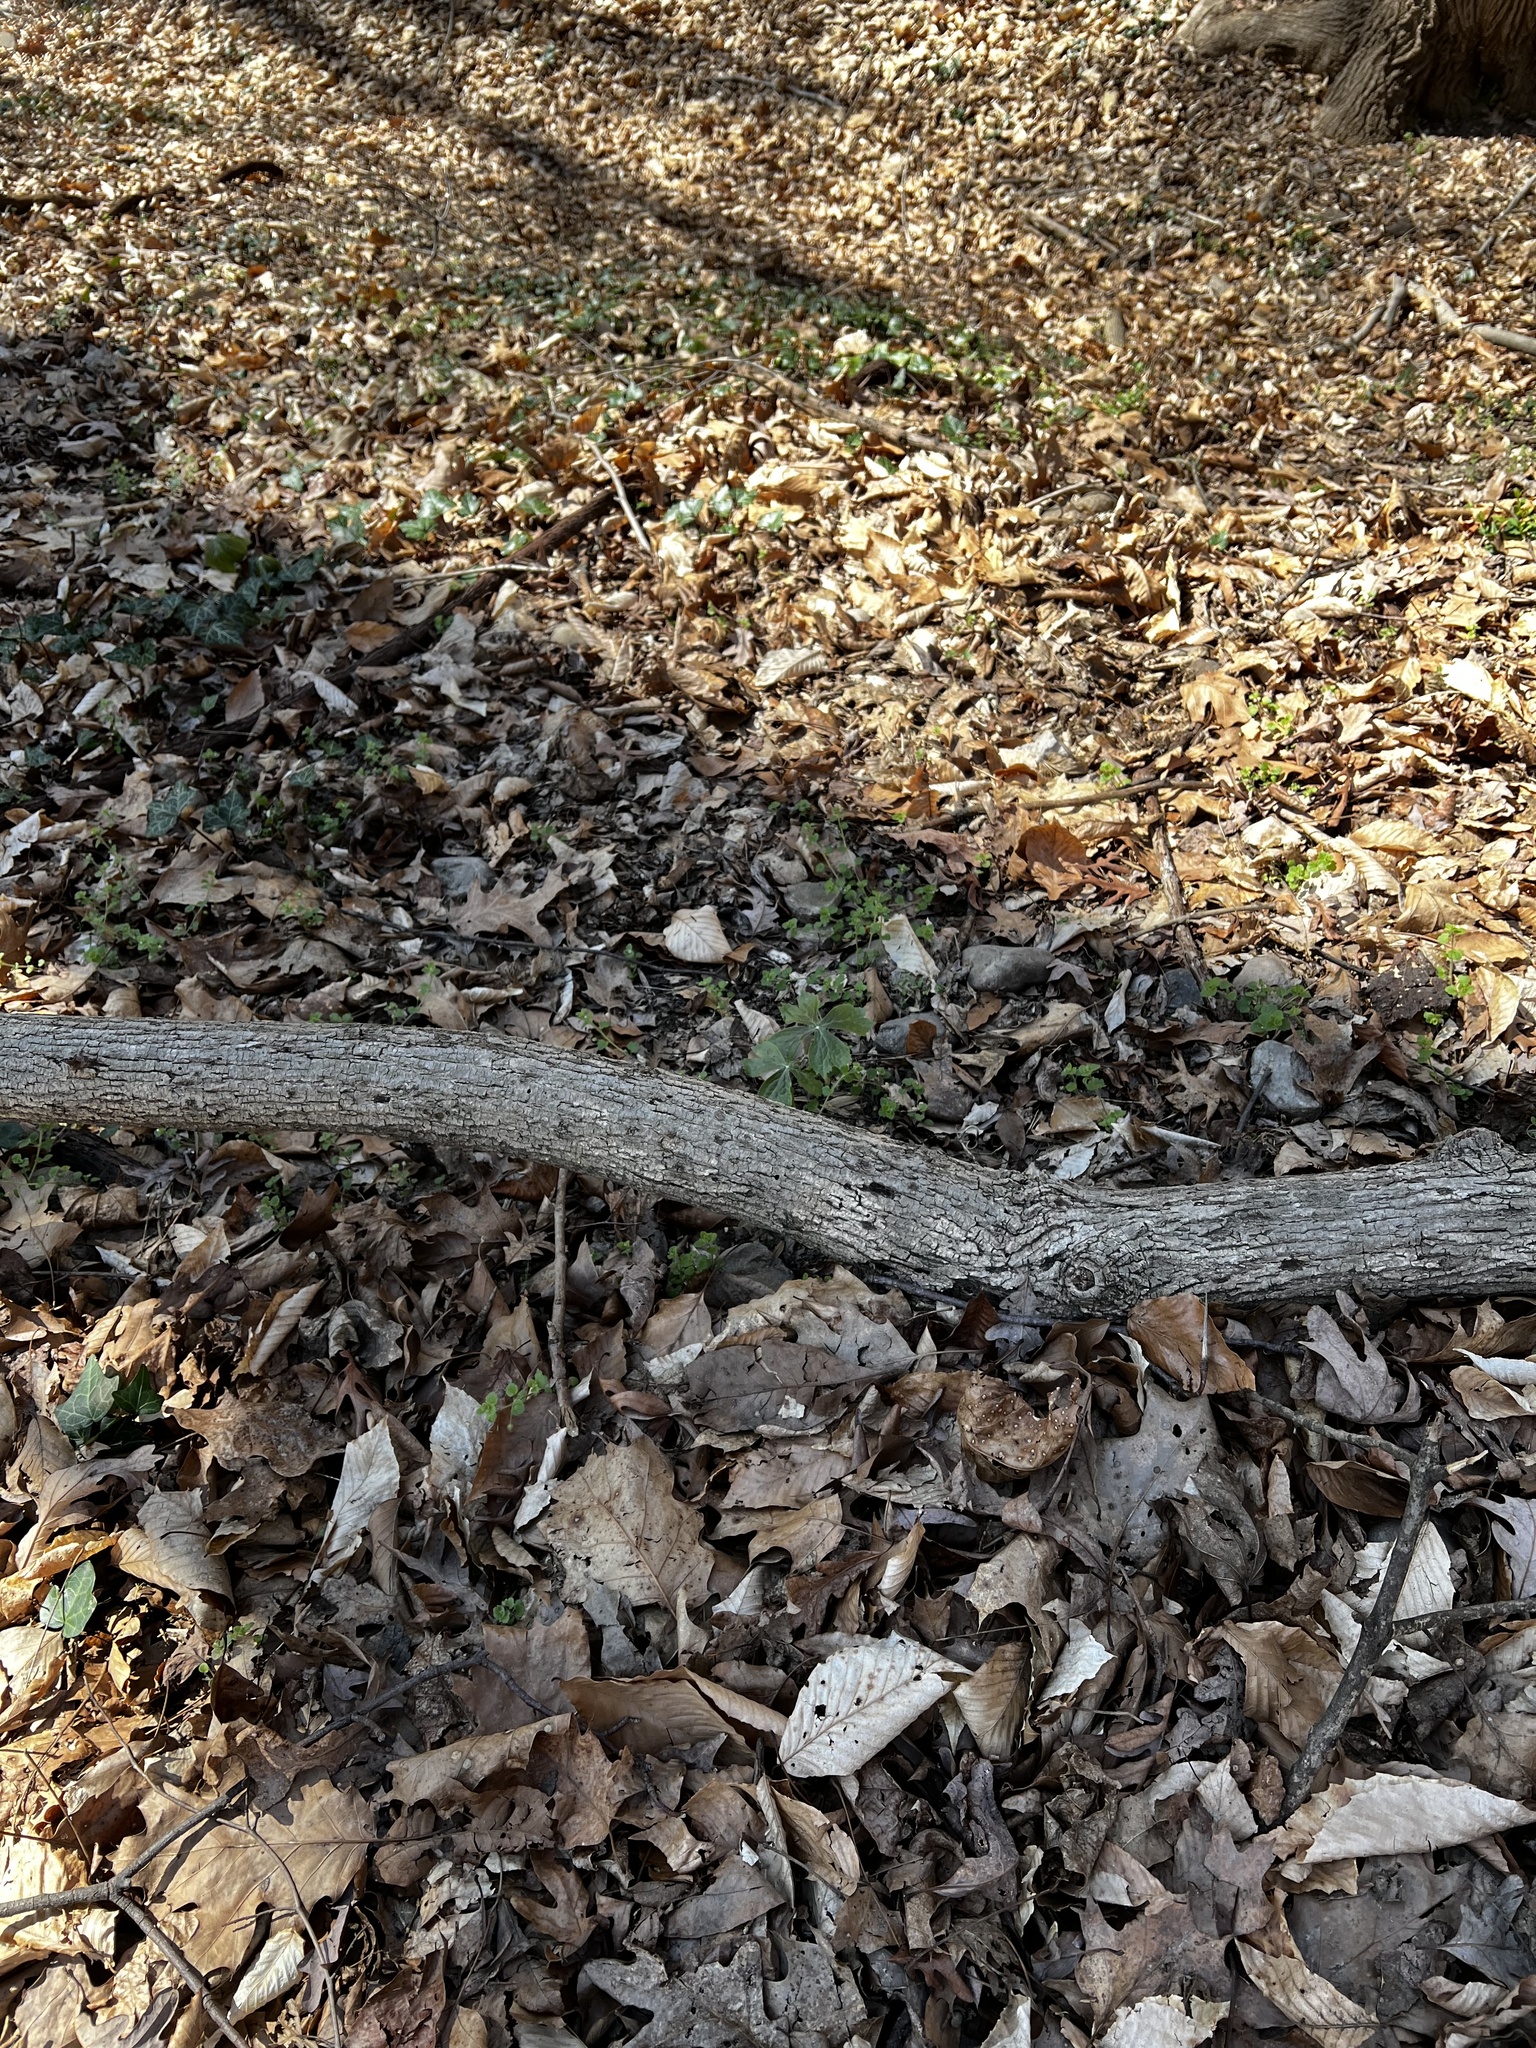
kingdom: Plantae
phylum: Tracheophyta
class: Magnoliopsida
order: Ranunculales
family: Berberidaceae
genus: Podophyllum
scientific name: Podophyllum peltatum
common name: Wild mandrake
